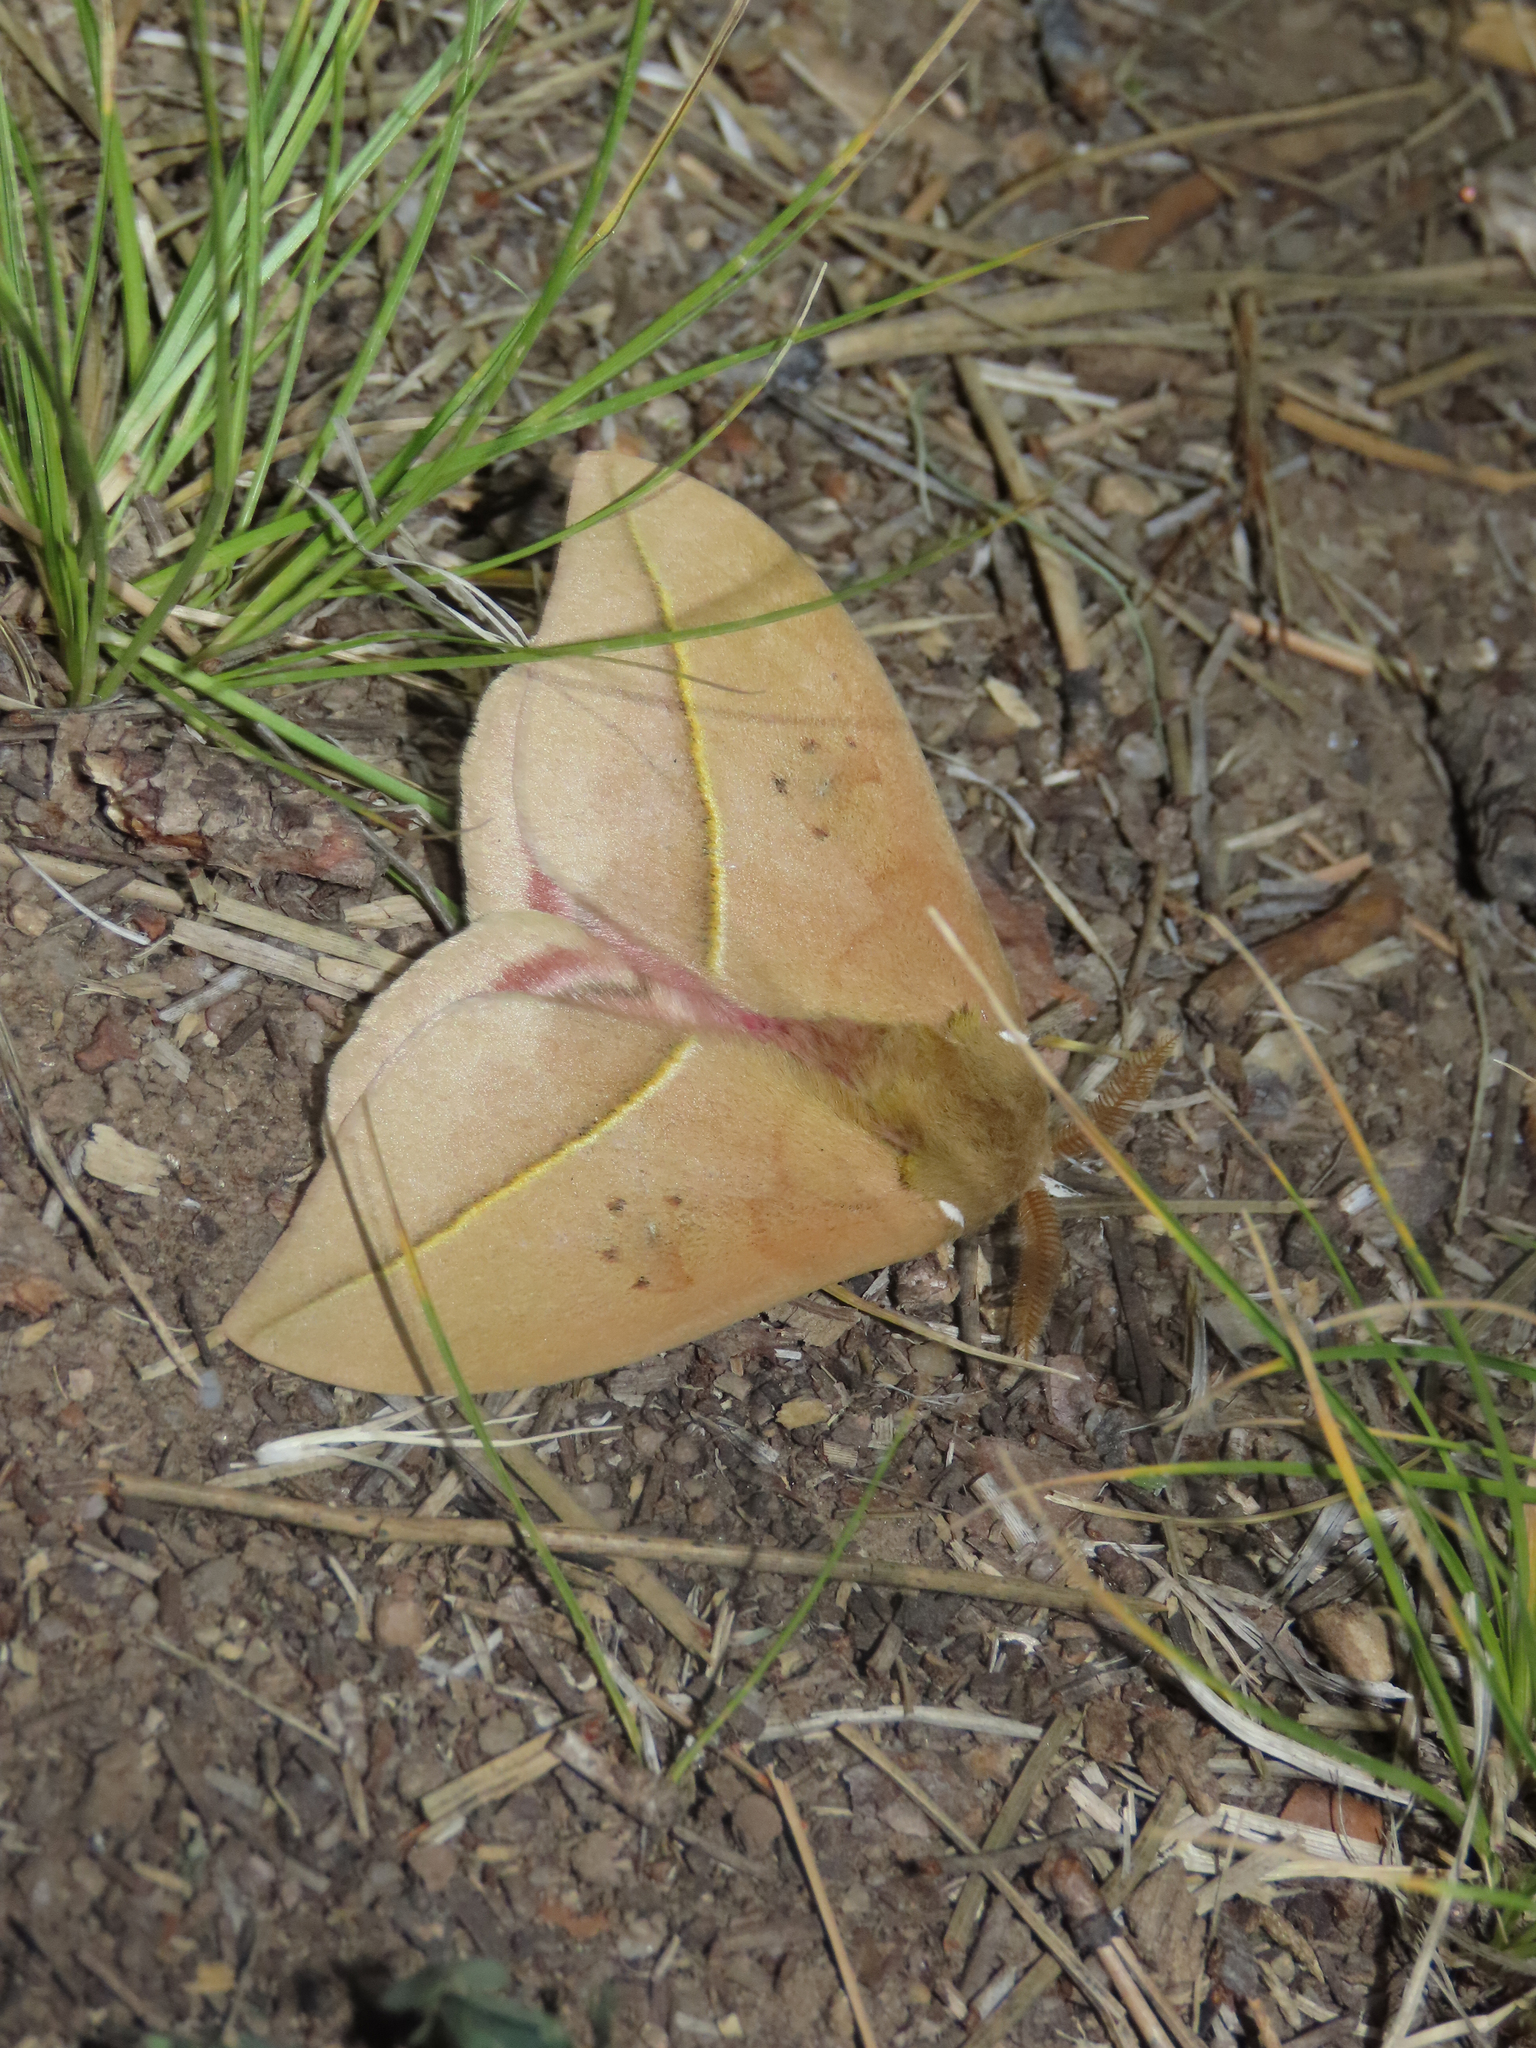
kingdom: Animalia
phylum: Arthropoda
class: Insecta
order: Lepidoptera
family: Saturniidae
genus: Automeris
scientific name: Automeris cecrops
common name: Cecrops eyed silkmoth
